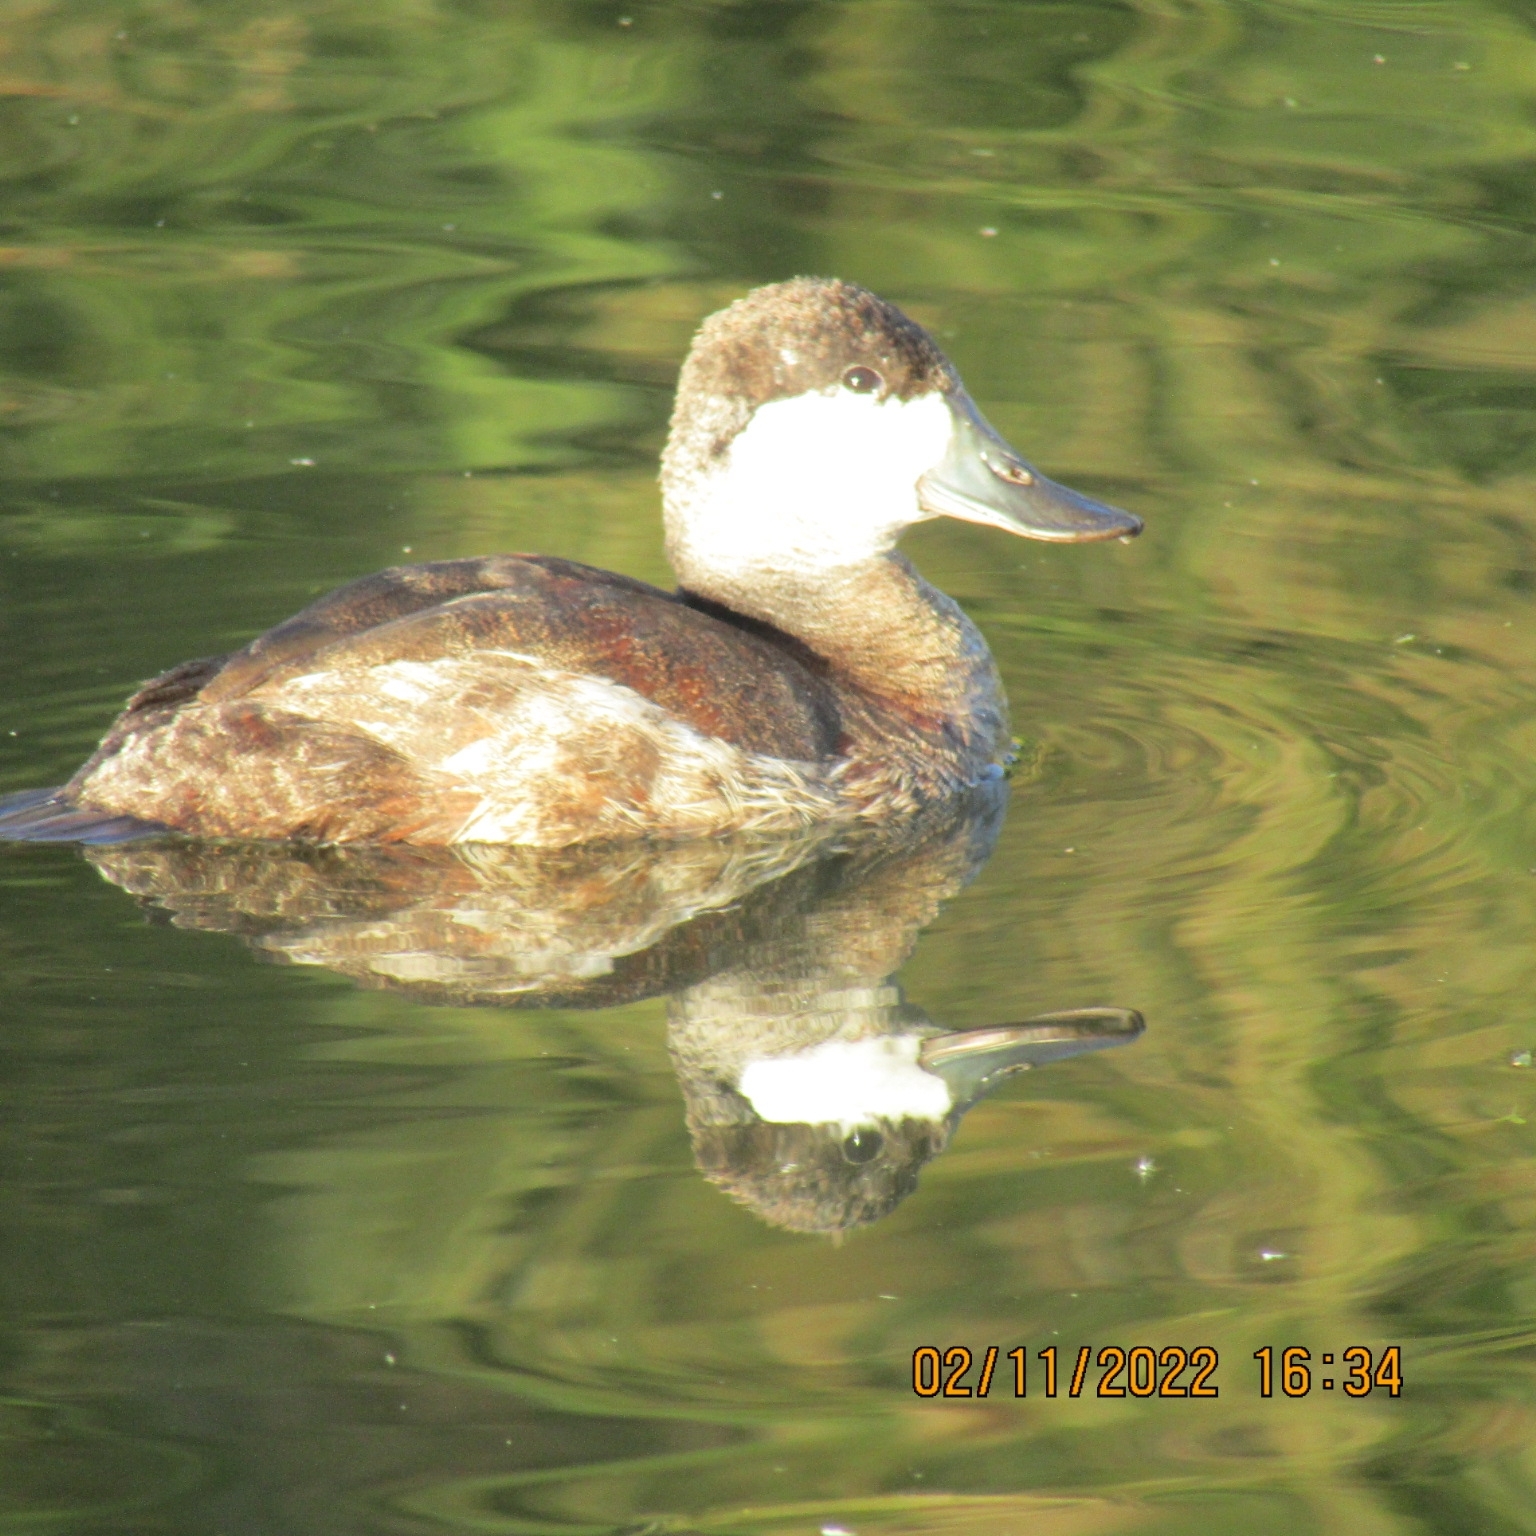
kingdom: Animalia
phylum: Chordata
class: Aves
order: Anseriformes
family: Anatidae
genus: Oxyura
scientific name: Oxyura jamaicensis
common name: Ruddy duck
